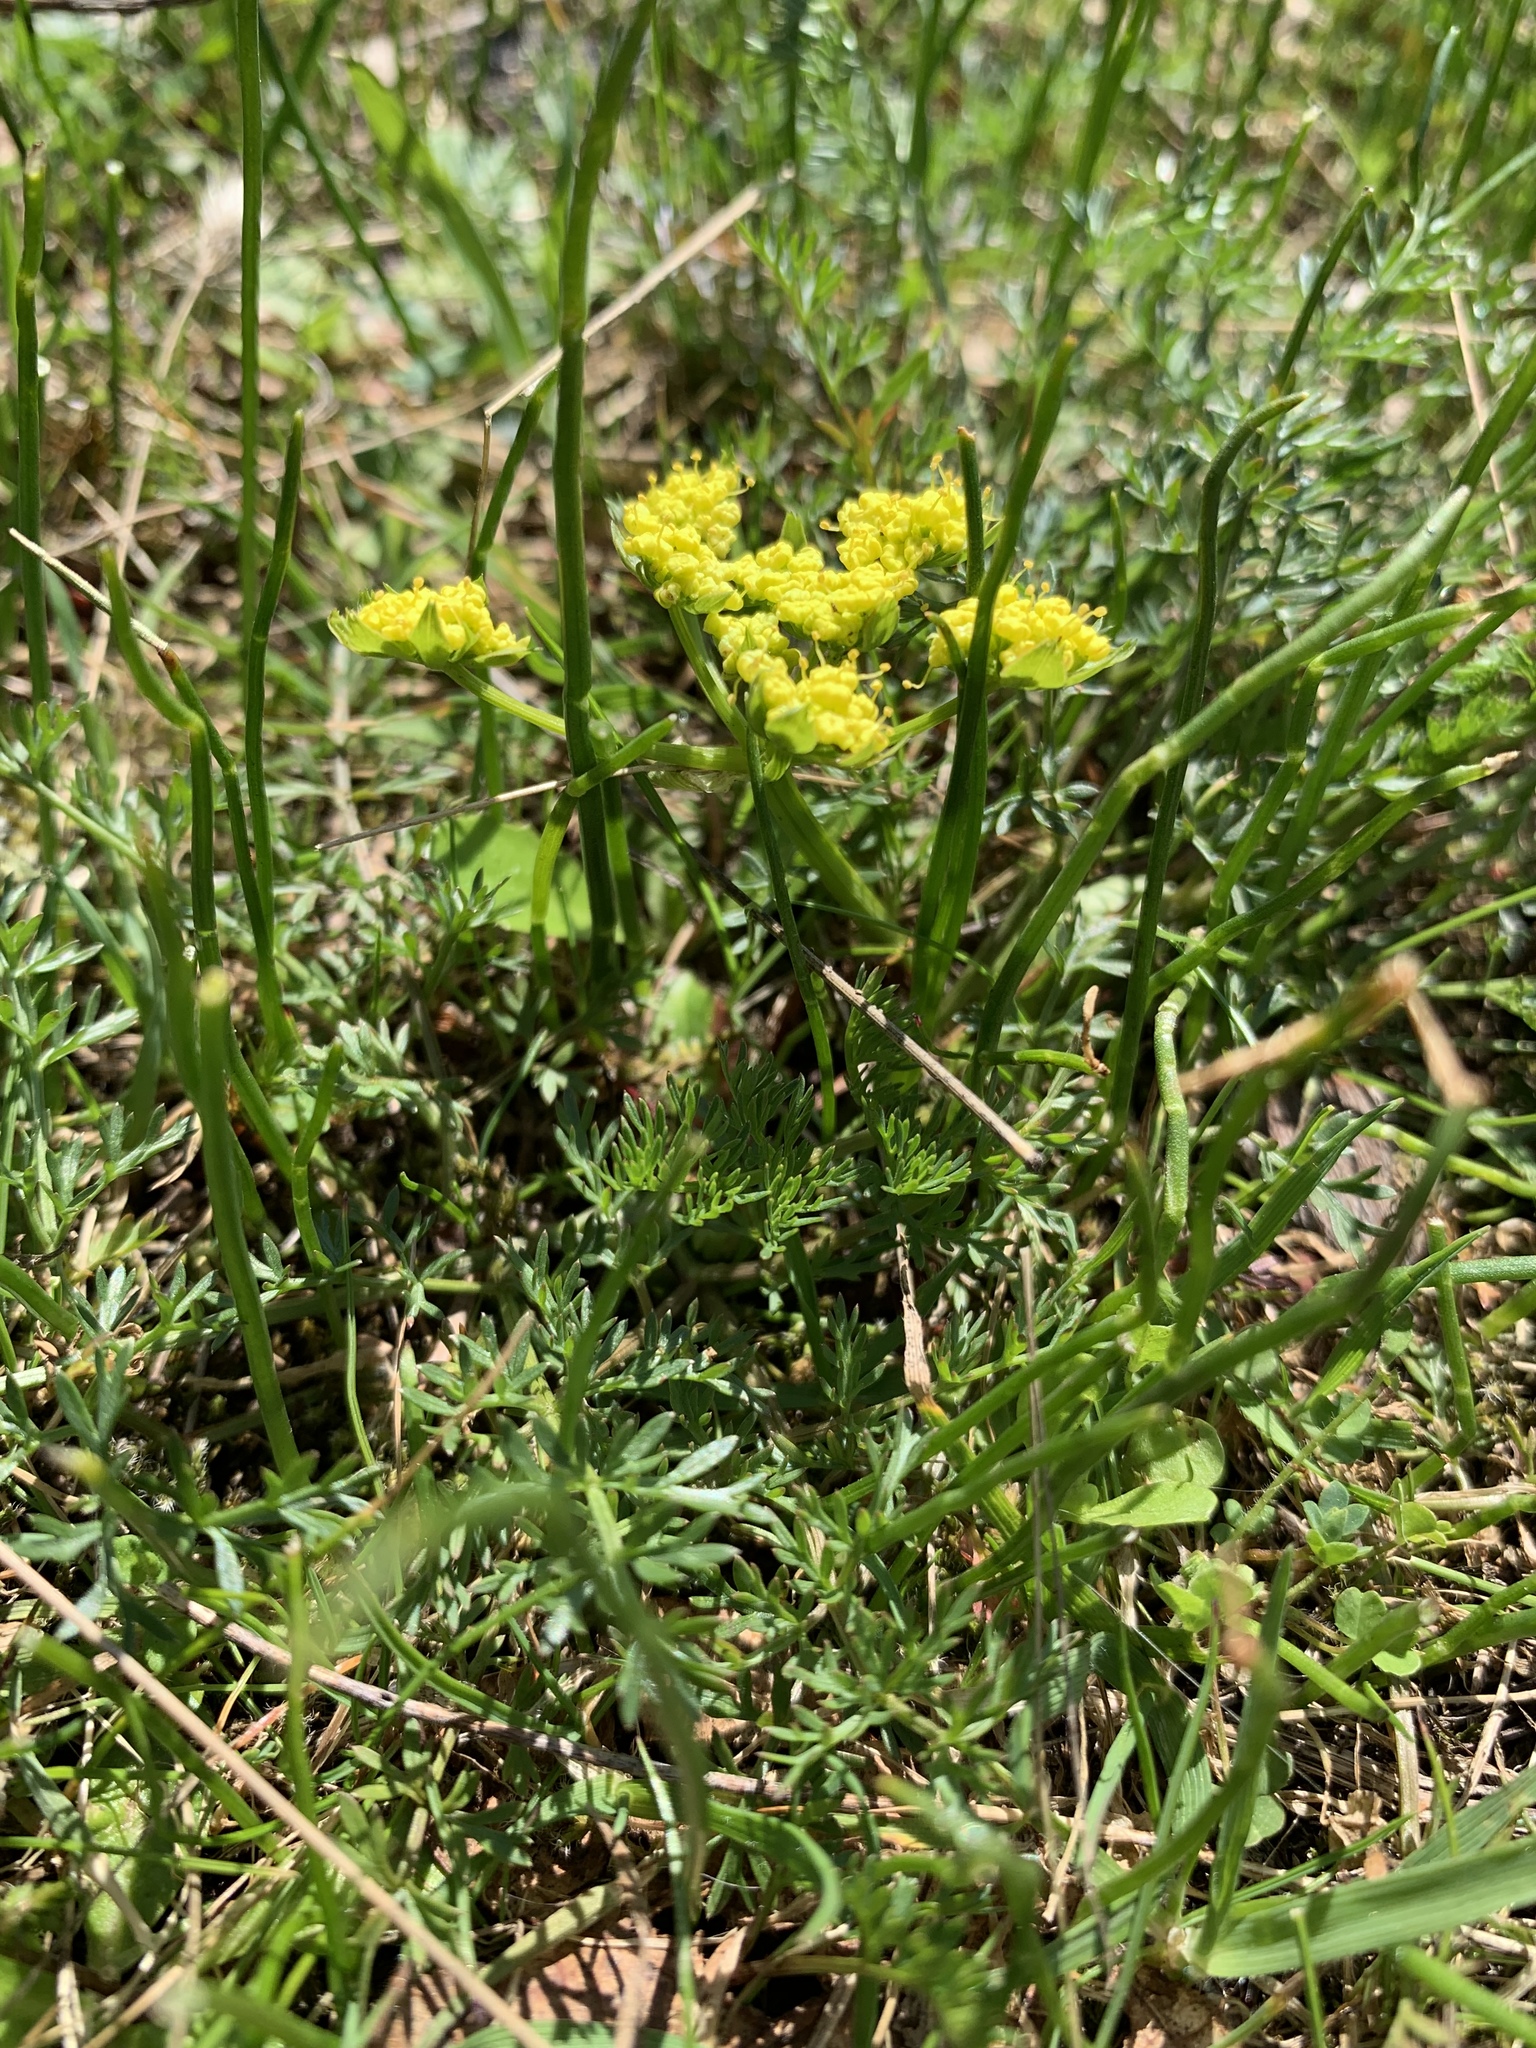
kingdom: Plantae
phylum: Tracheophyta
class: Magnoliopsida
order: Apiales
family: Apiaceae
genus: Lomatium
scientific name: Lomatium utriculatum
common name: Fine-leaf desert-parsley
